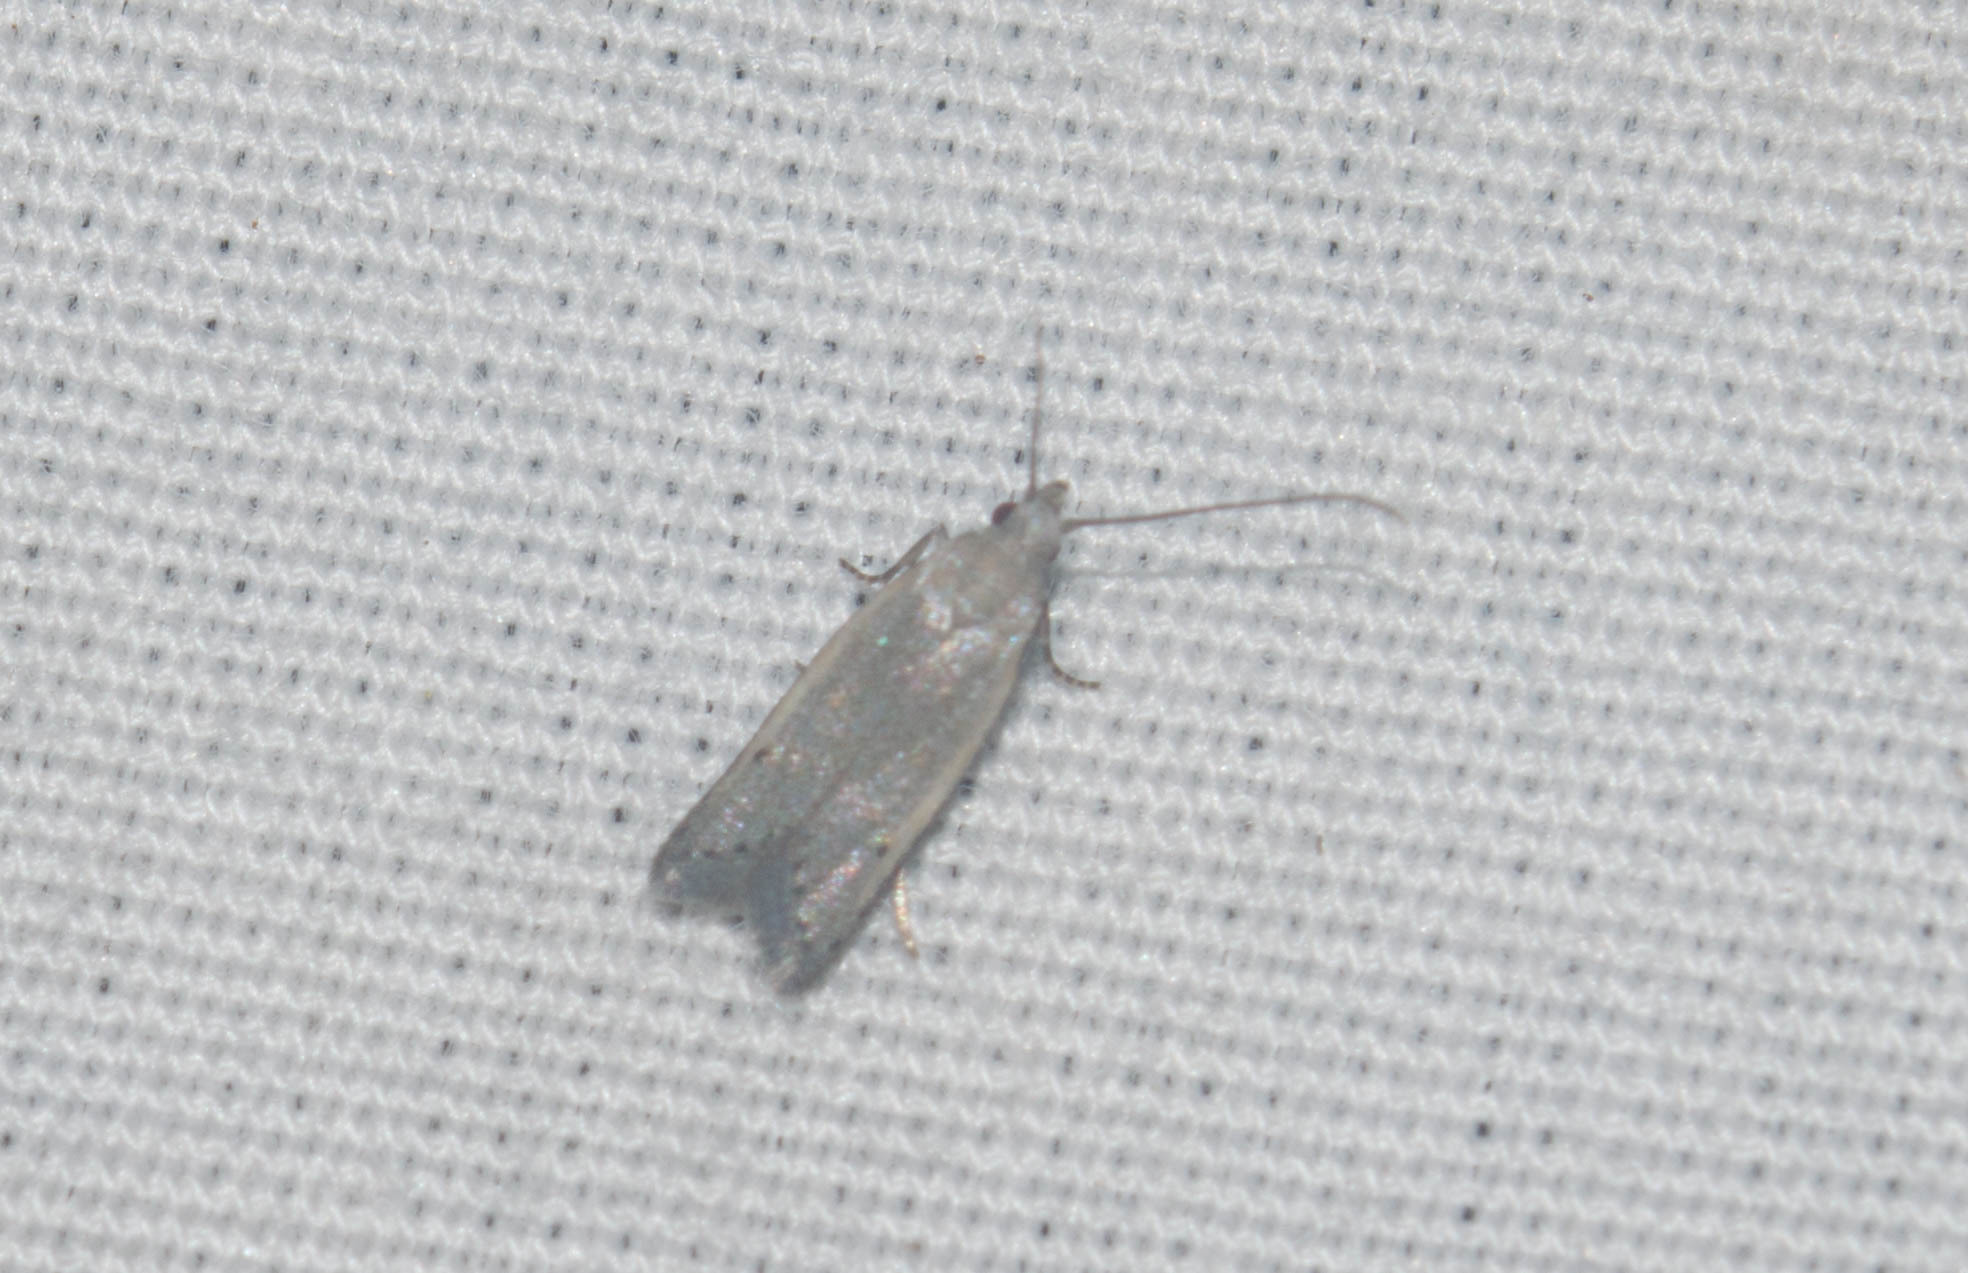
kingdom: Animalia
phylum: Arthropoda
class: Insecta
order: Lepidoptera
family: Carposinidae
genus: Carposina
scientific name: Carposina gracillima
